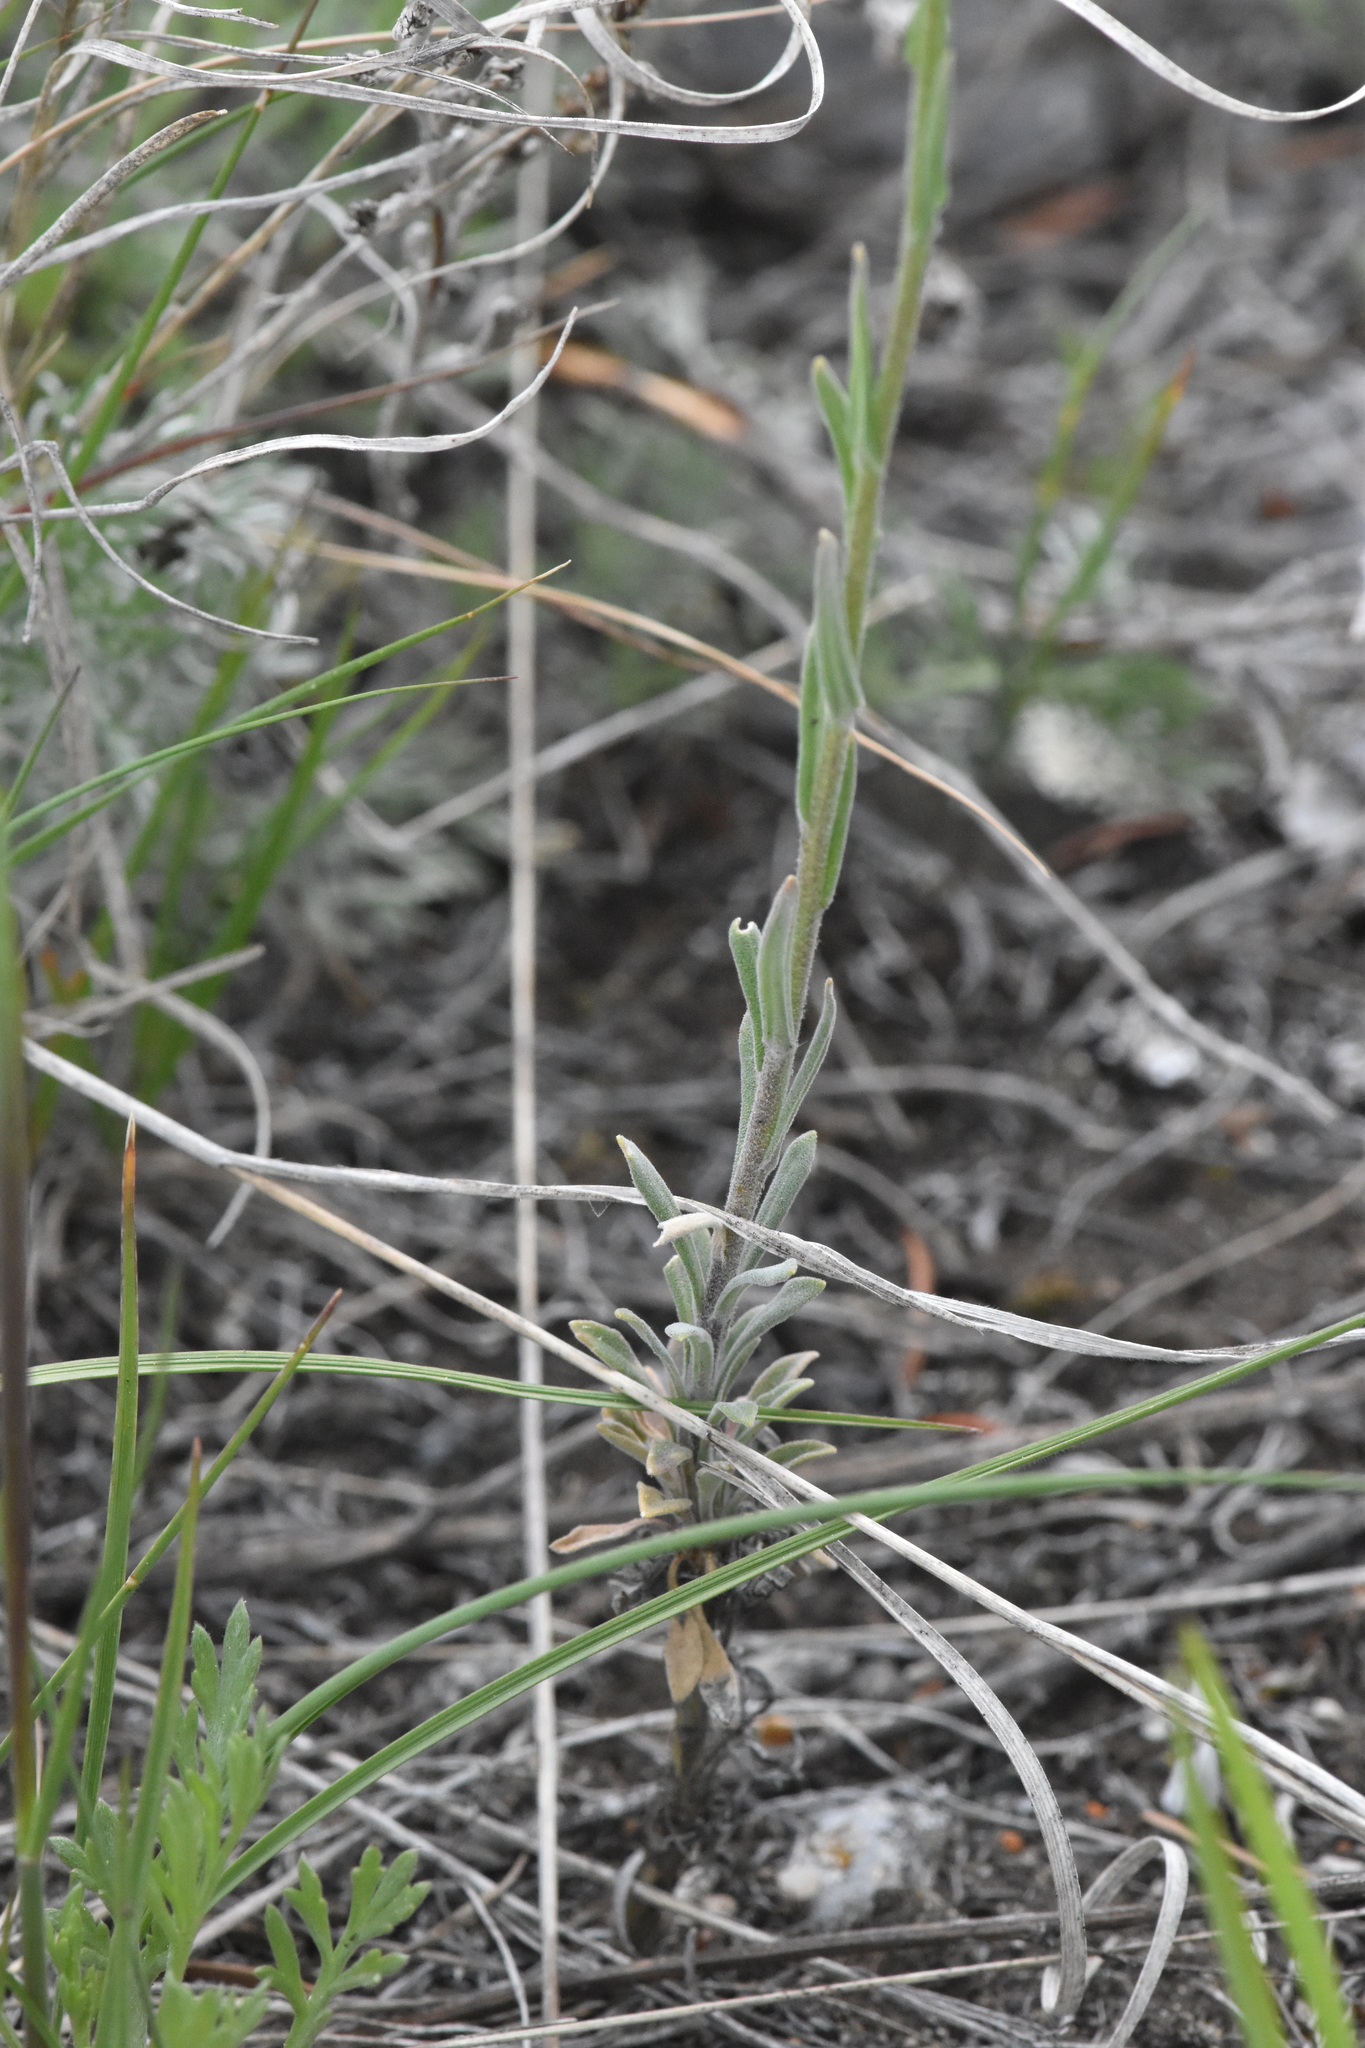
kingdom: Plantae
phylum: Tracheophyta
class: Magnoliopsida
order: Brassicales
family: Brassicaceae
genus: Boechera
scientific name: Boechera retrofracta
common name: Dangling suncress
